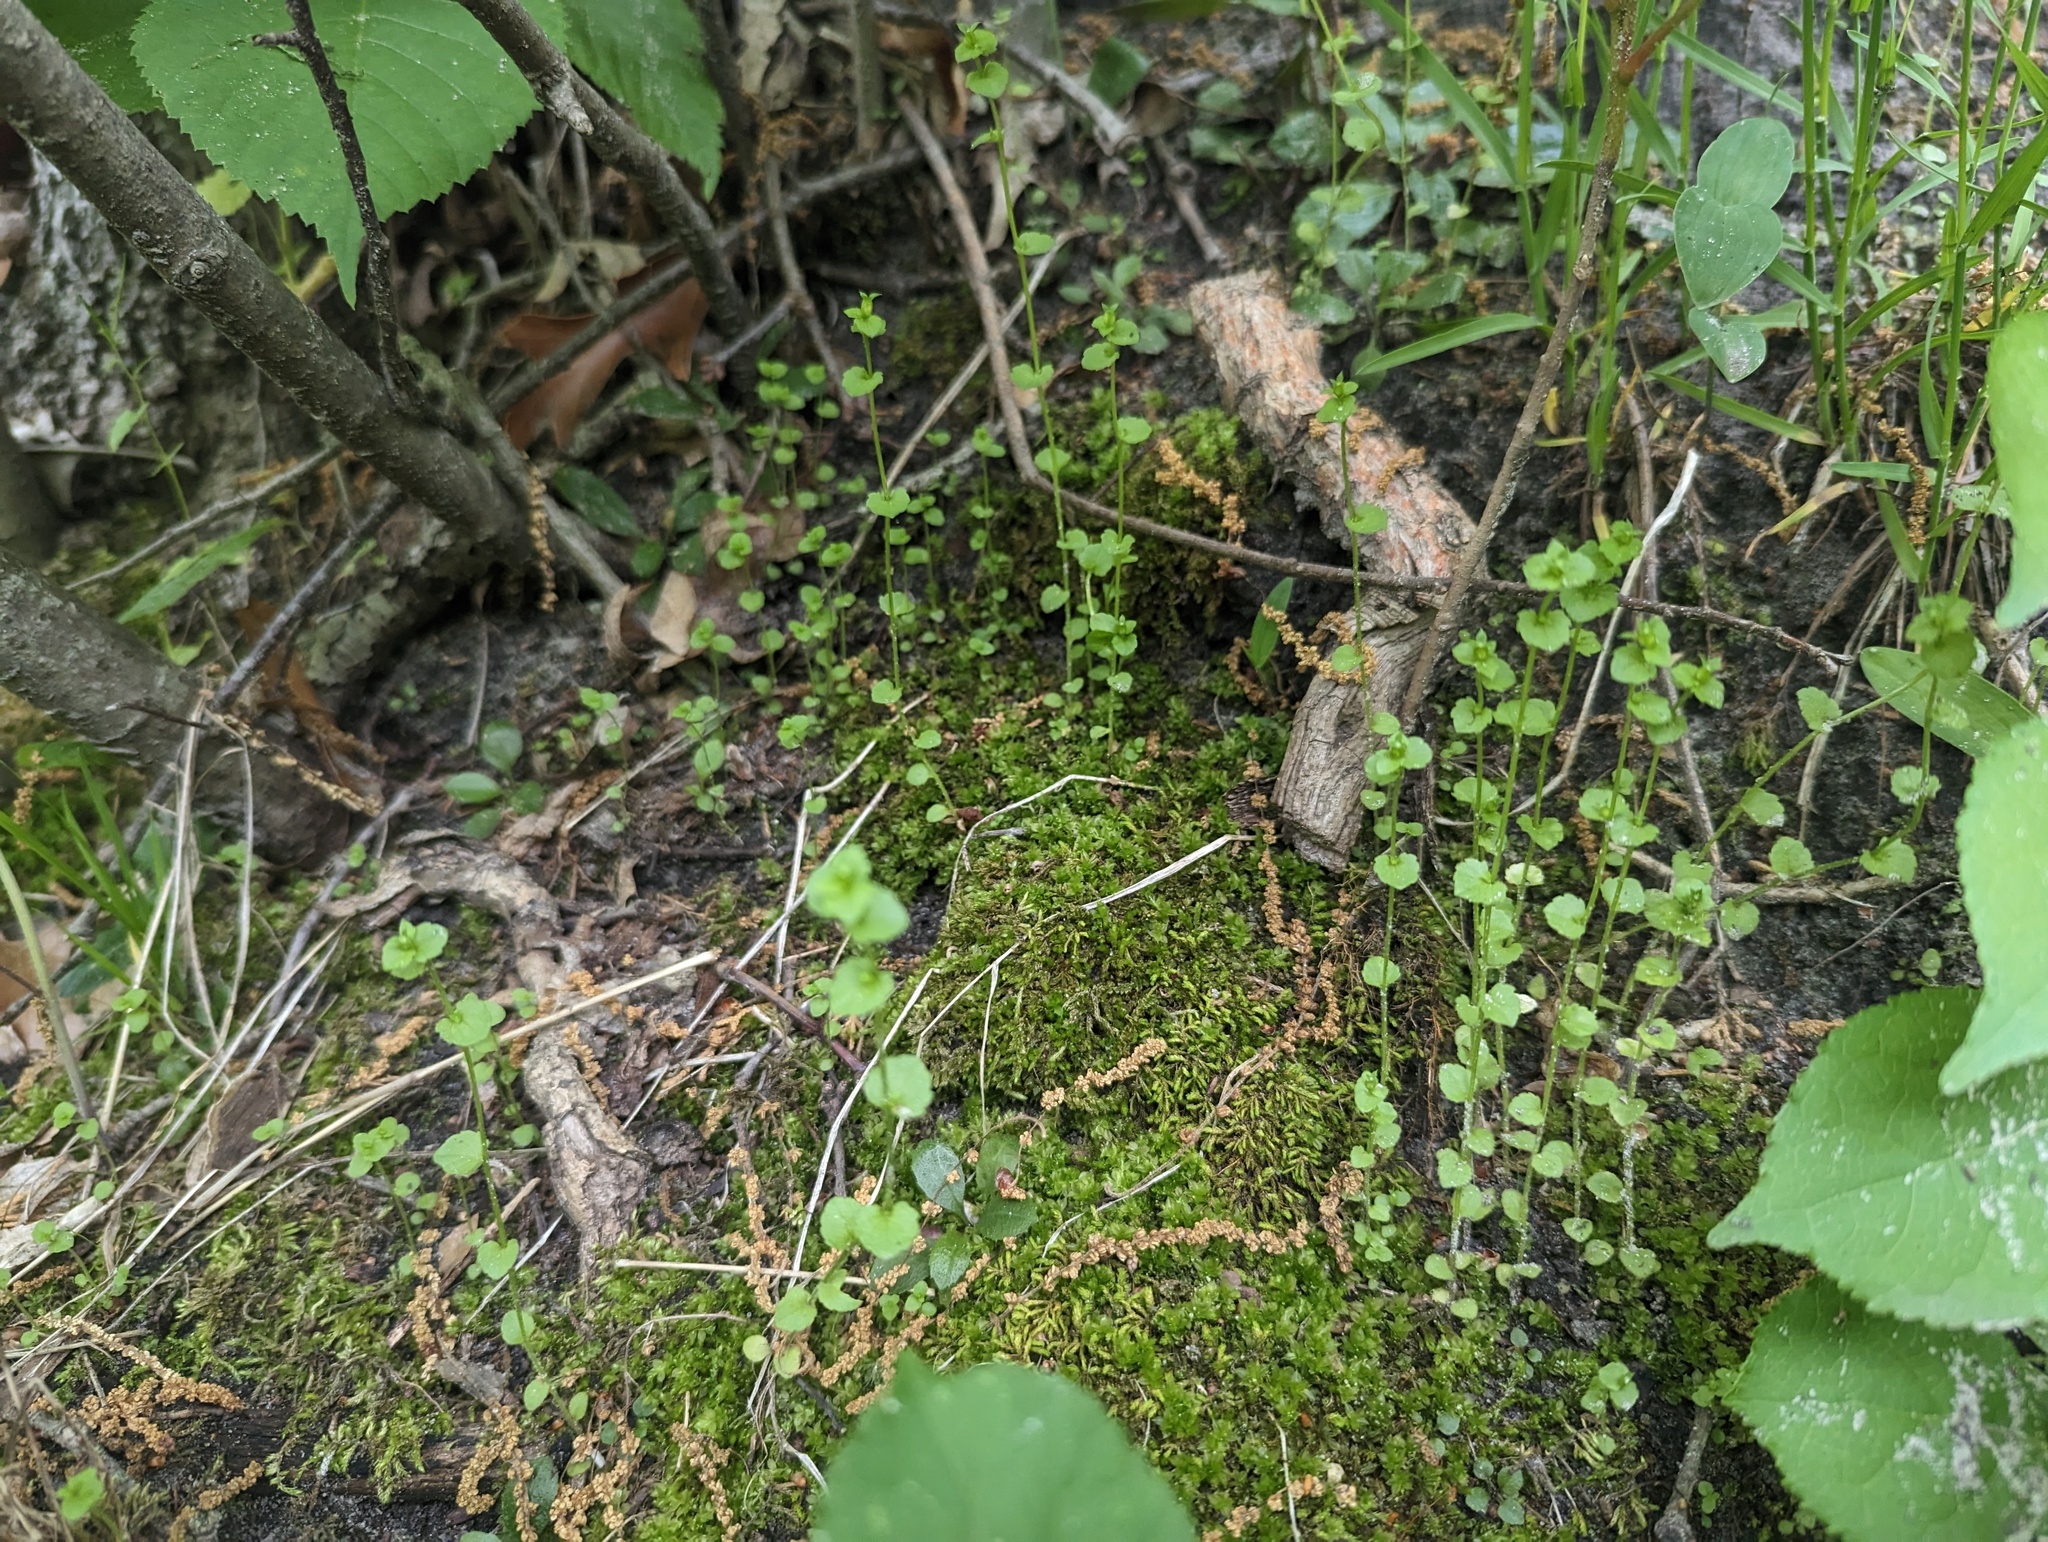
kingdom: Plantae
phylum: Tracheophyta
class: Magnoliopsida
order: Asterales
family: Campanulaceae
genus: Triodanis
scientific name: Triodanis perfoliata
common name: Clasping venus' looking-glass
